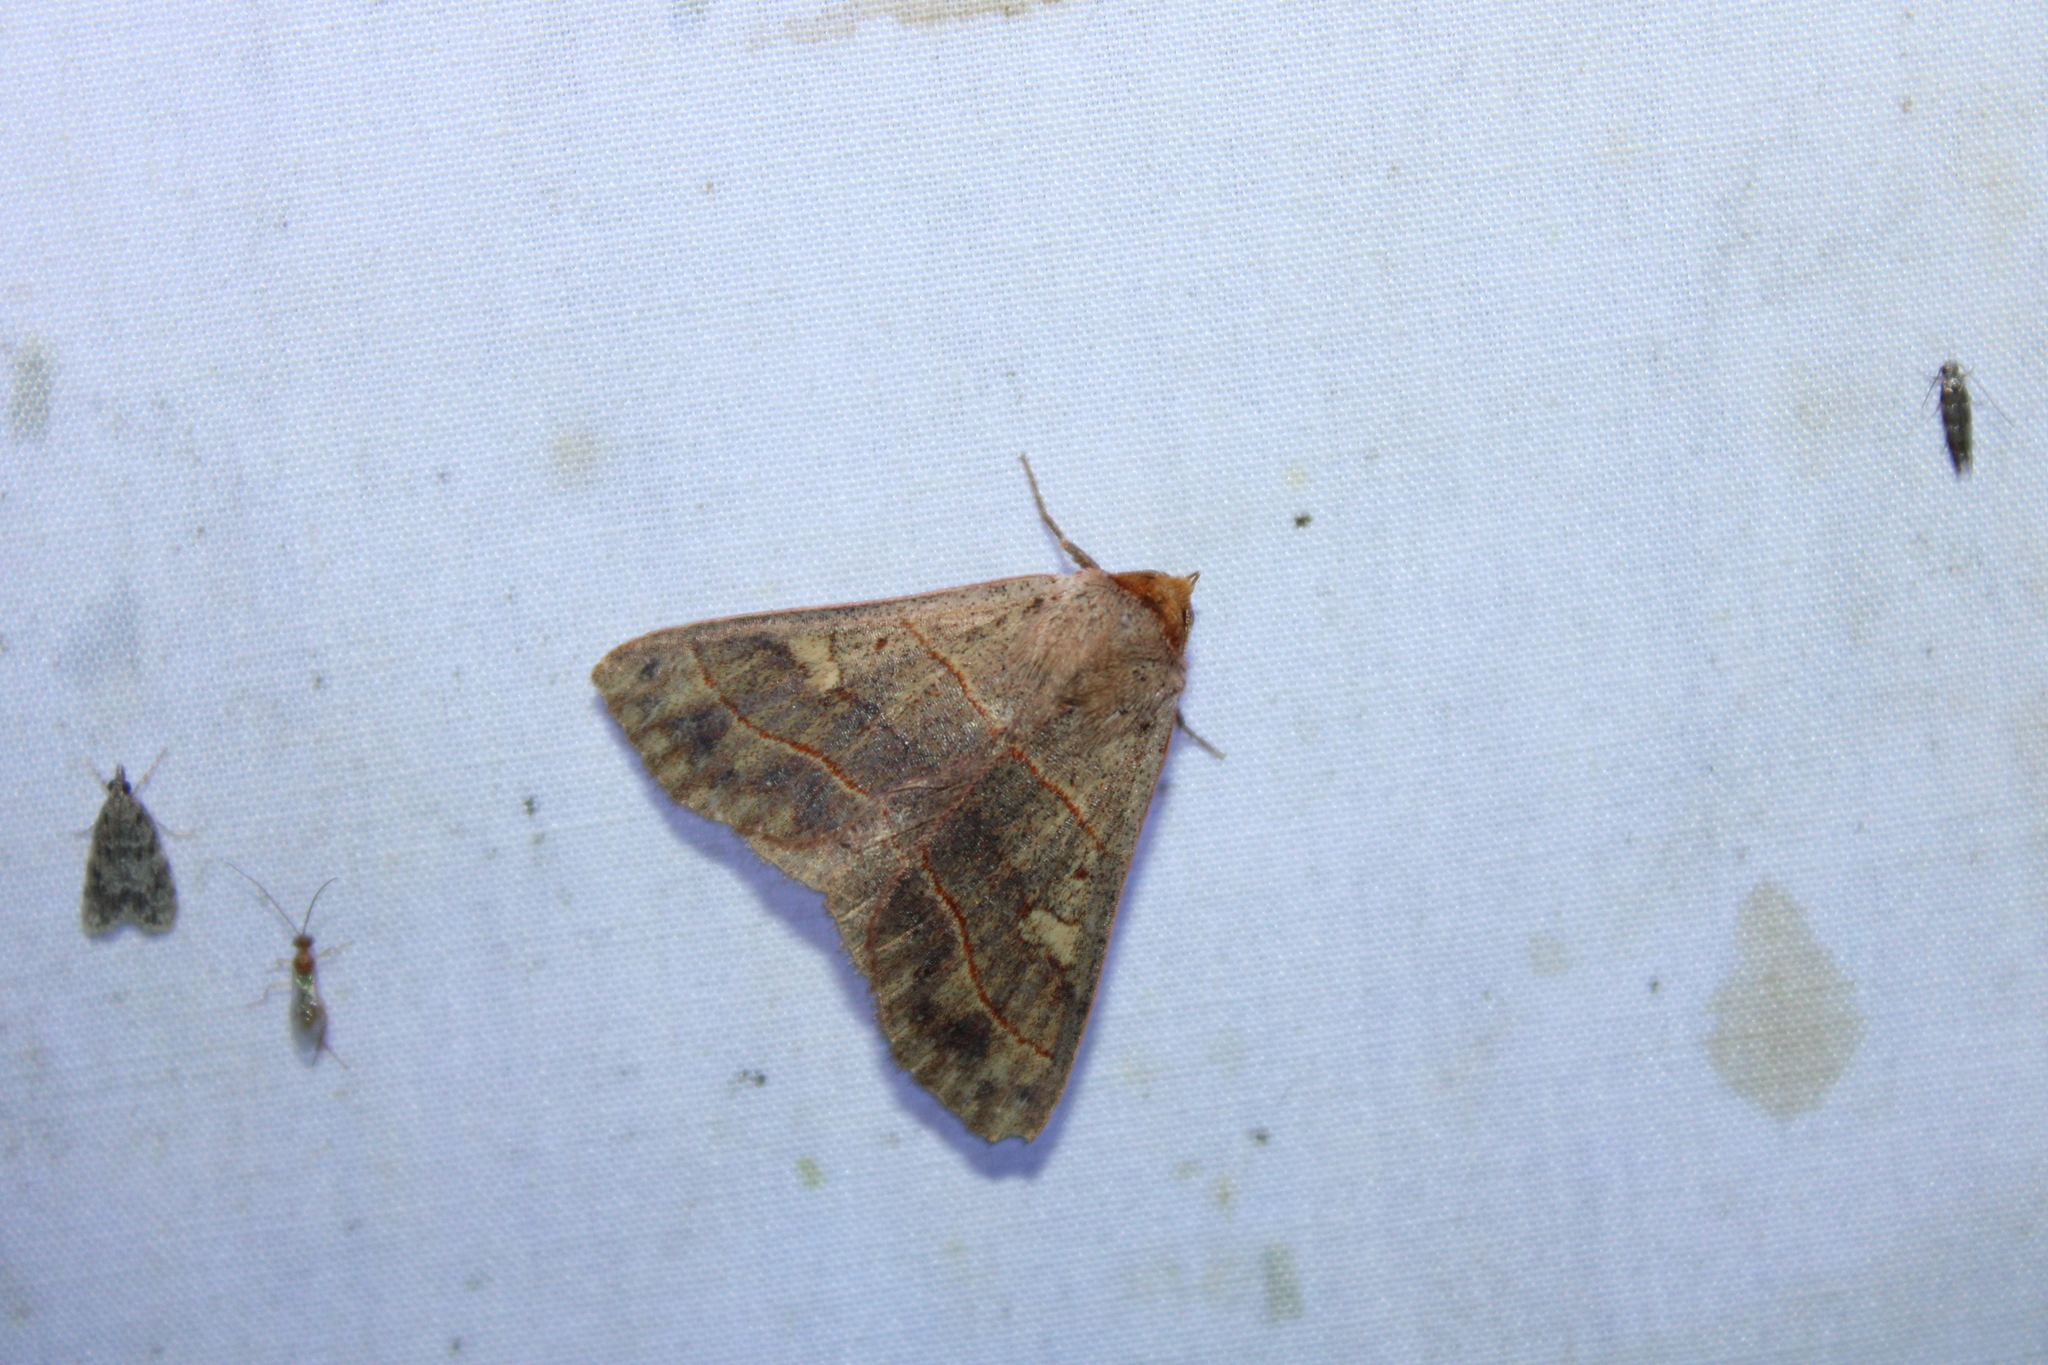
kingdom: Animalia
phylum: Arthropoda
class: Insecta
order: Lepidoptera
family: Erebidae
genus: Panopoda
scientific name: Panopoda rufimargo
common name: Red-lined panopoda moth
